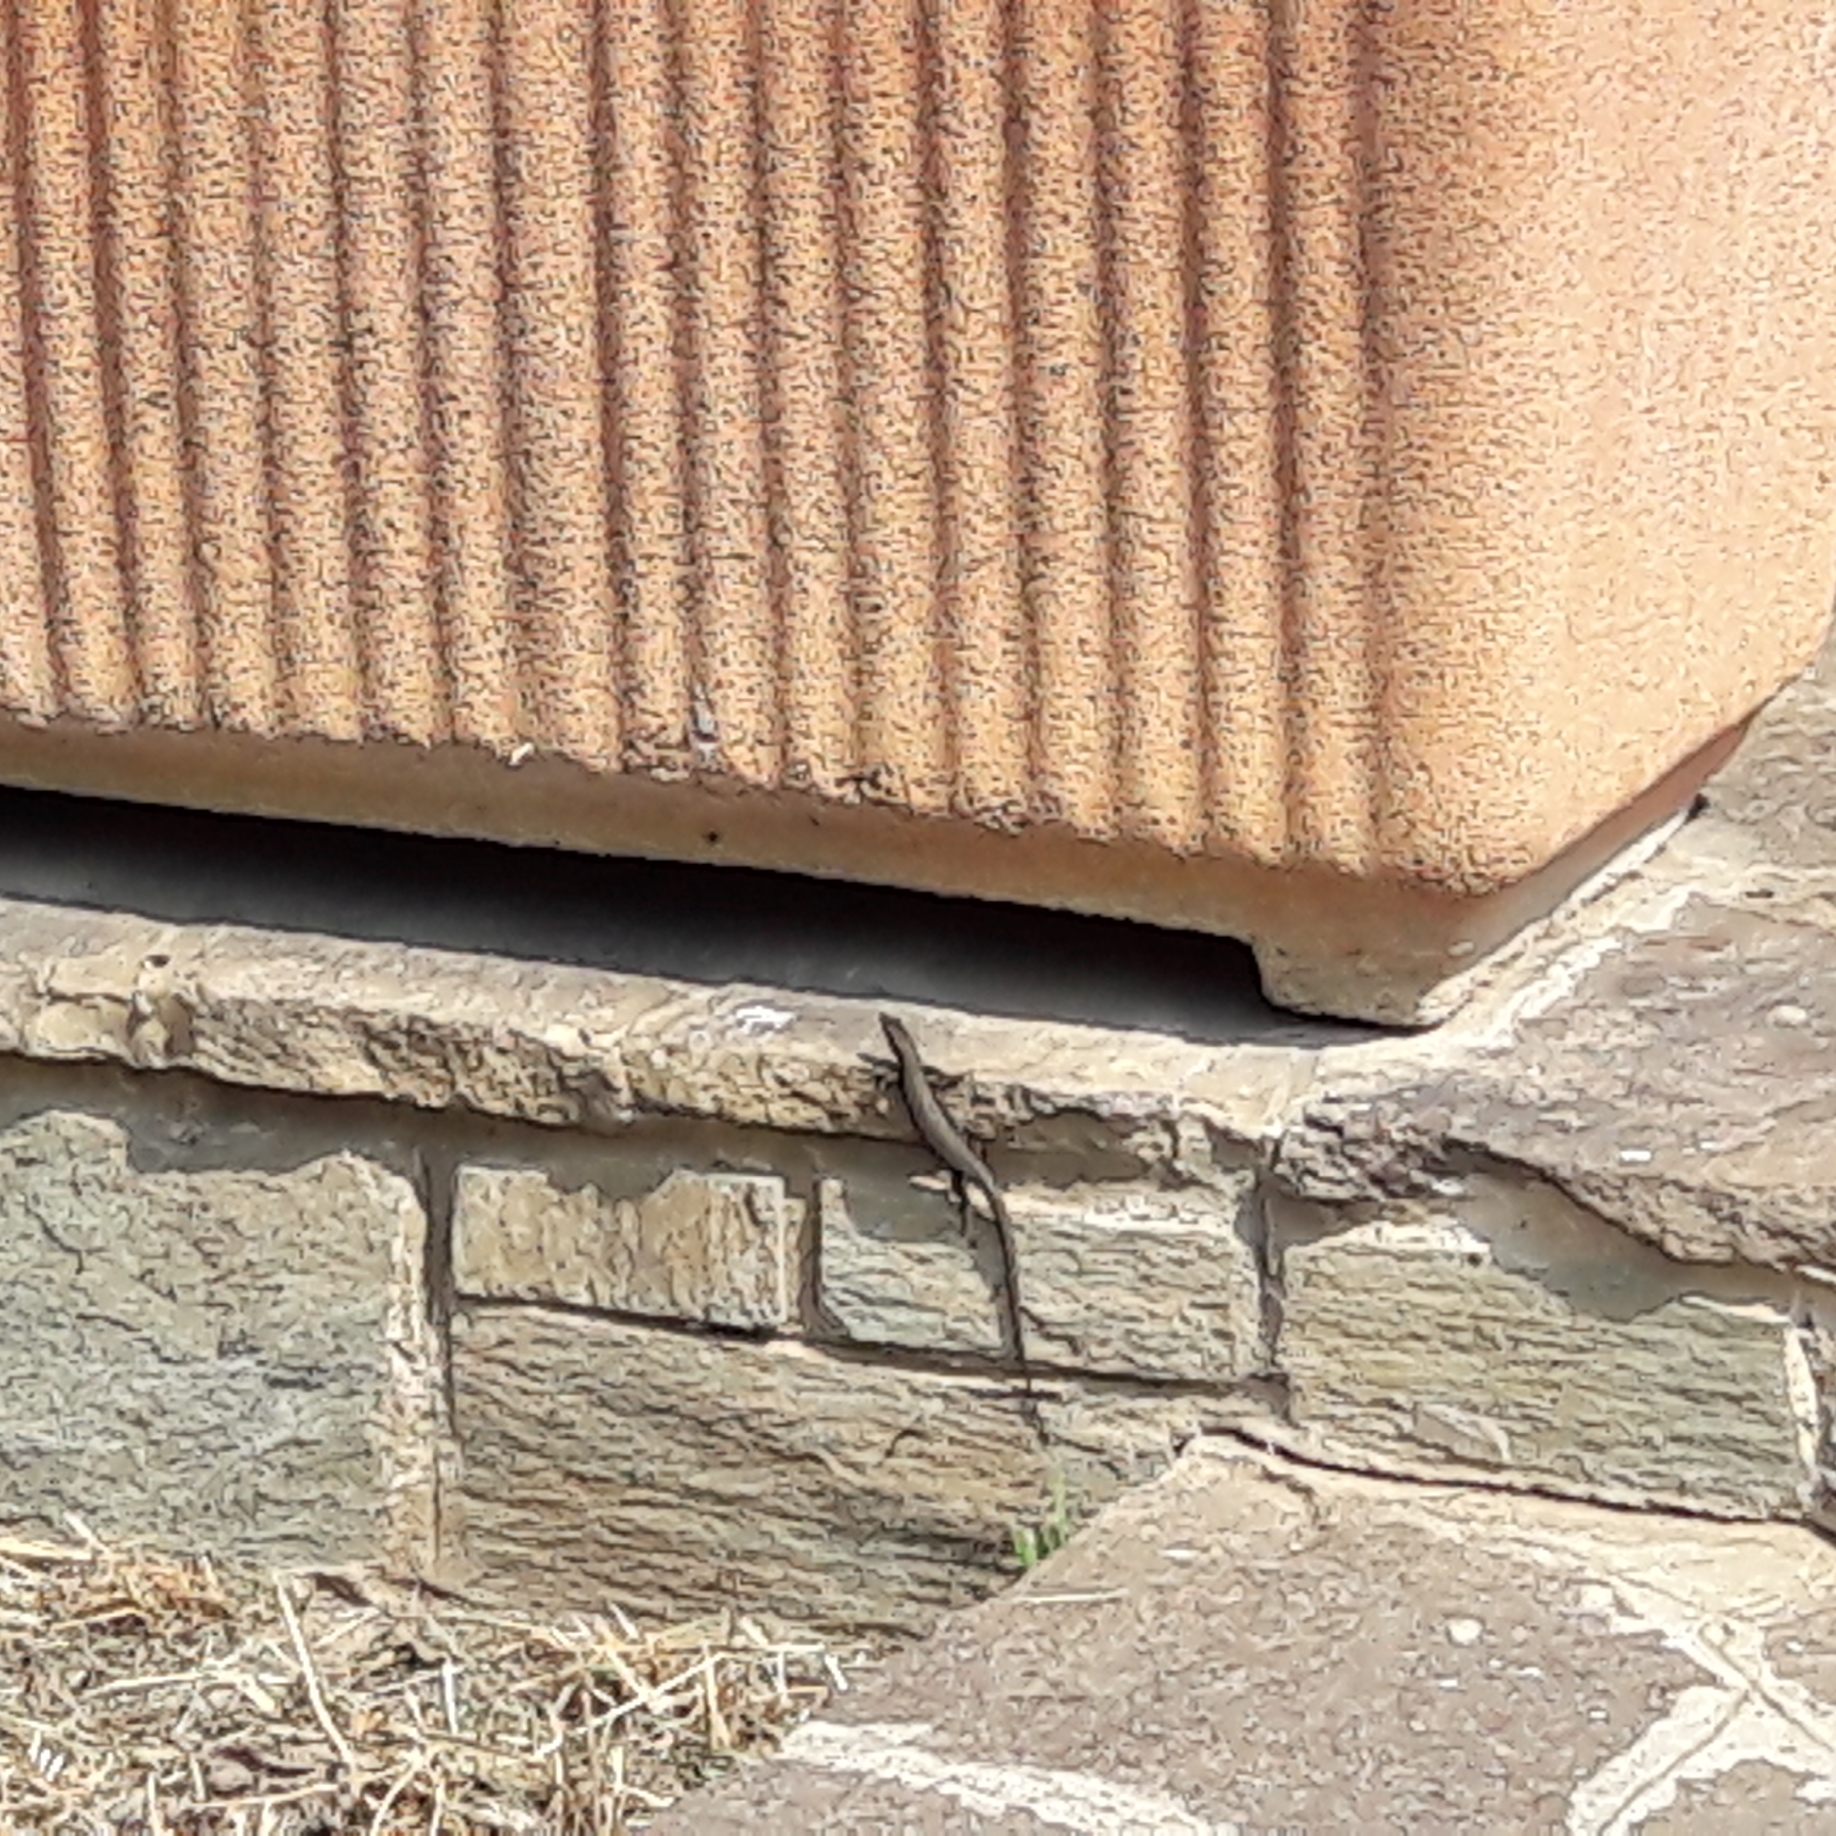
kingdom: Animalia
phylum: Chordata
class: Squamata
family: Lacertidae
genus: Podarcis
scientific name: Podarcis muralis
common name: Common wall lizard
